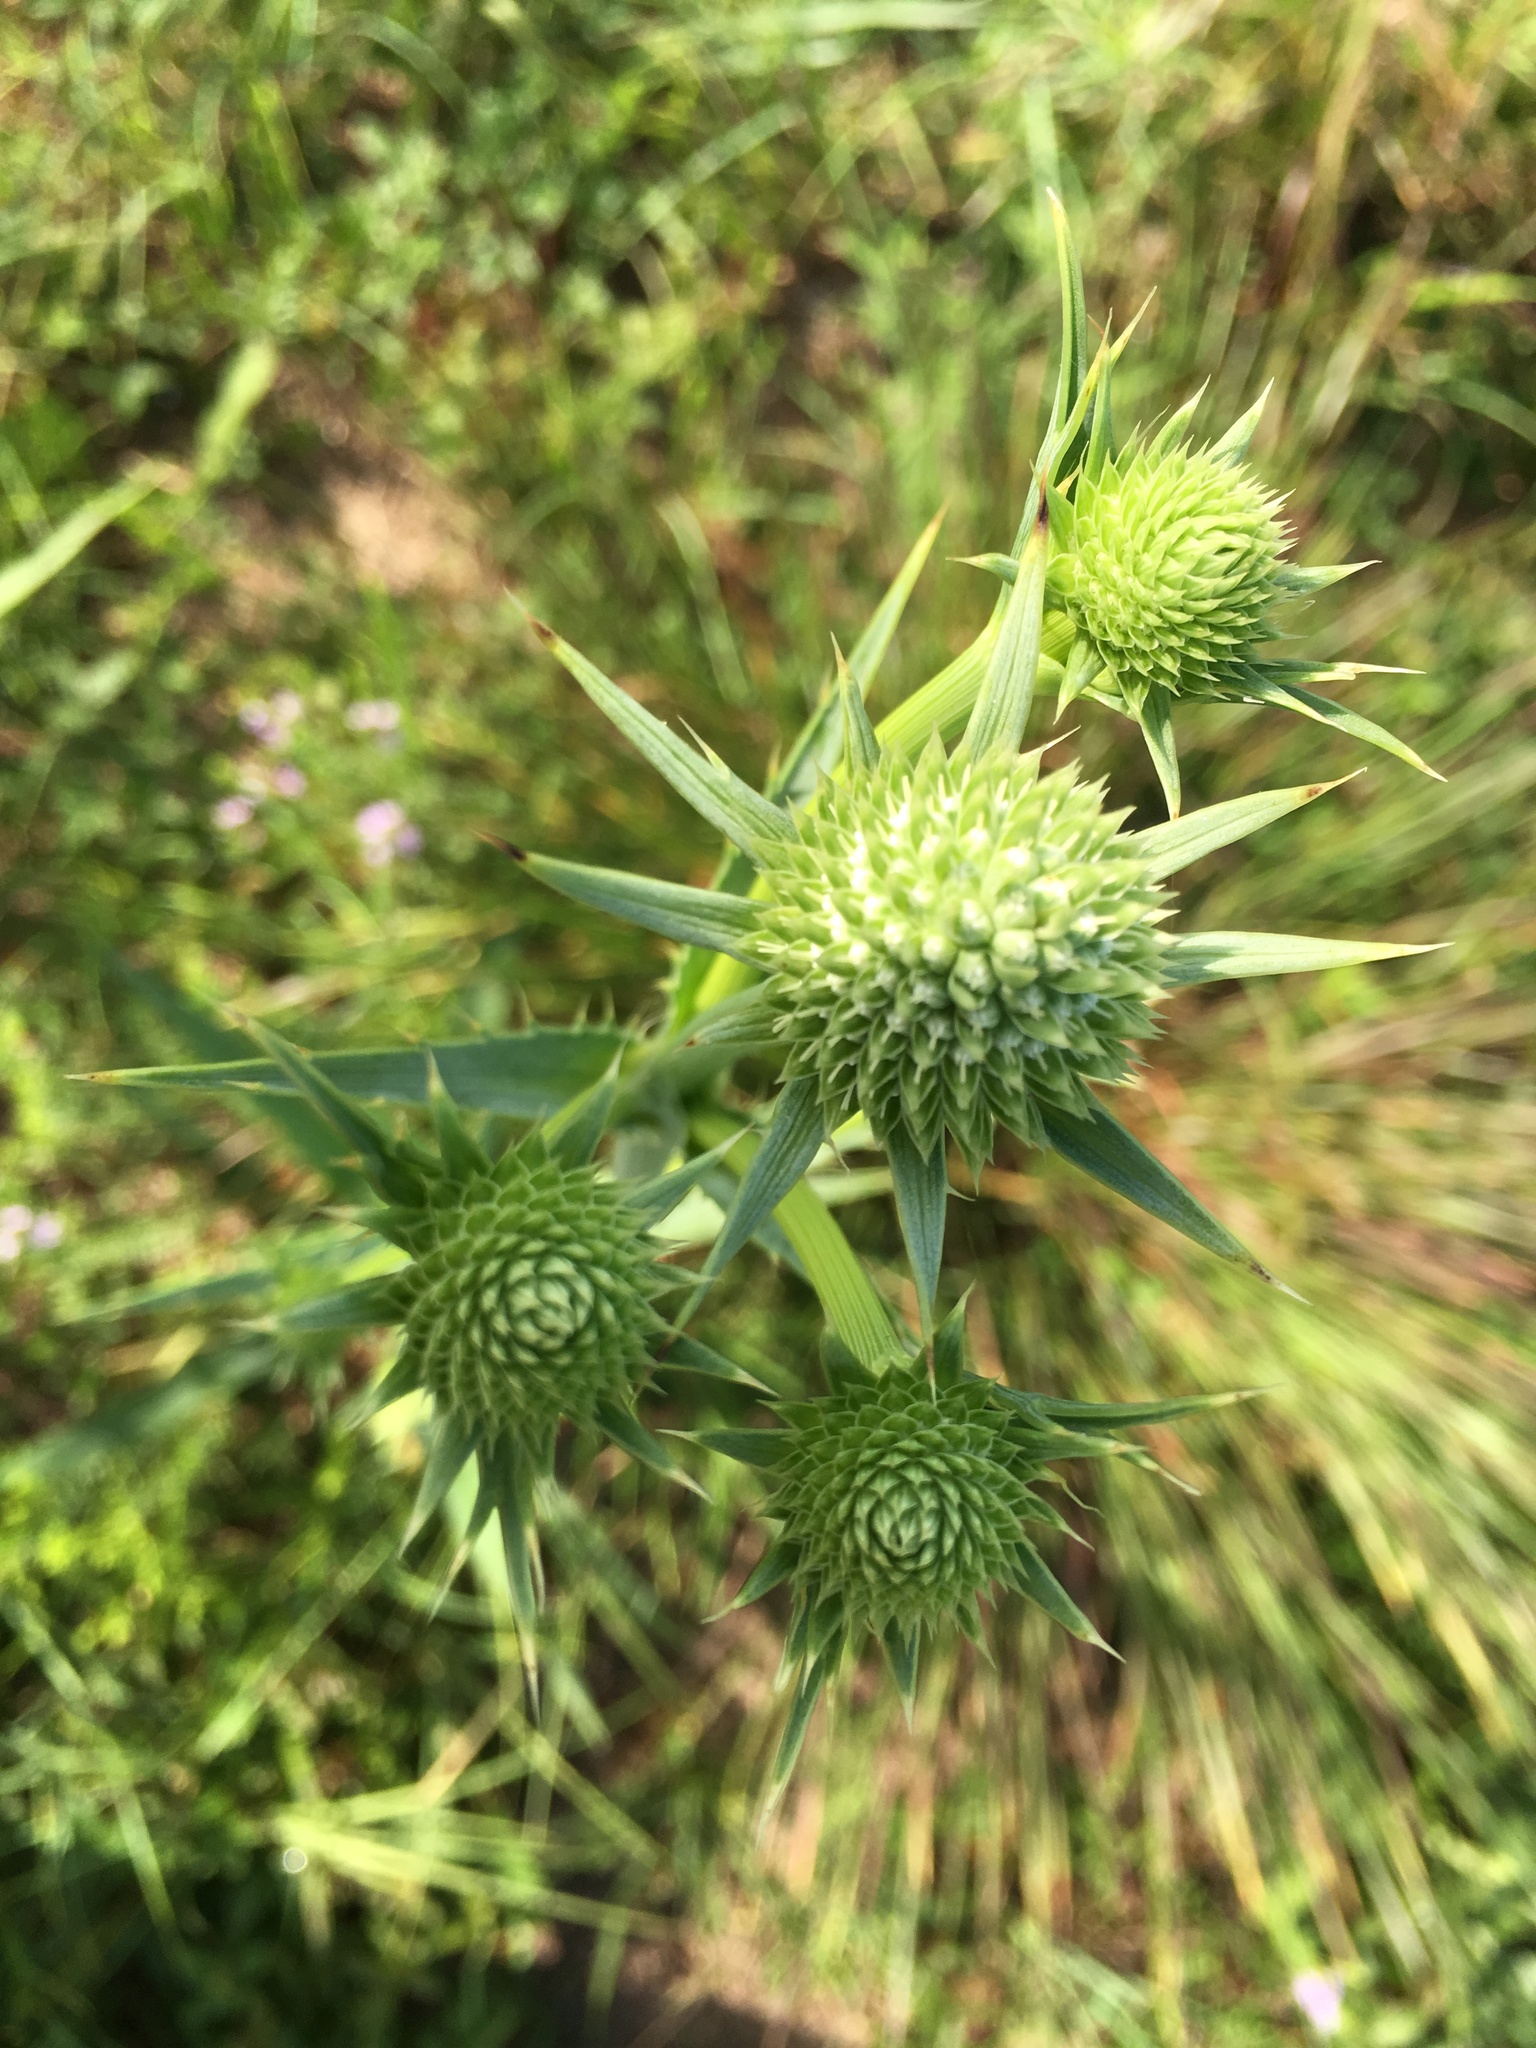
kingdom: Plantae
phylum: Tracheophyta
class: Magnoliopsida
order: Apiales
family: Apiaceae
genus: Eryngium
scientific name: Eryngium yuccifolium
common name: Button eryngo
